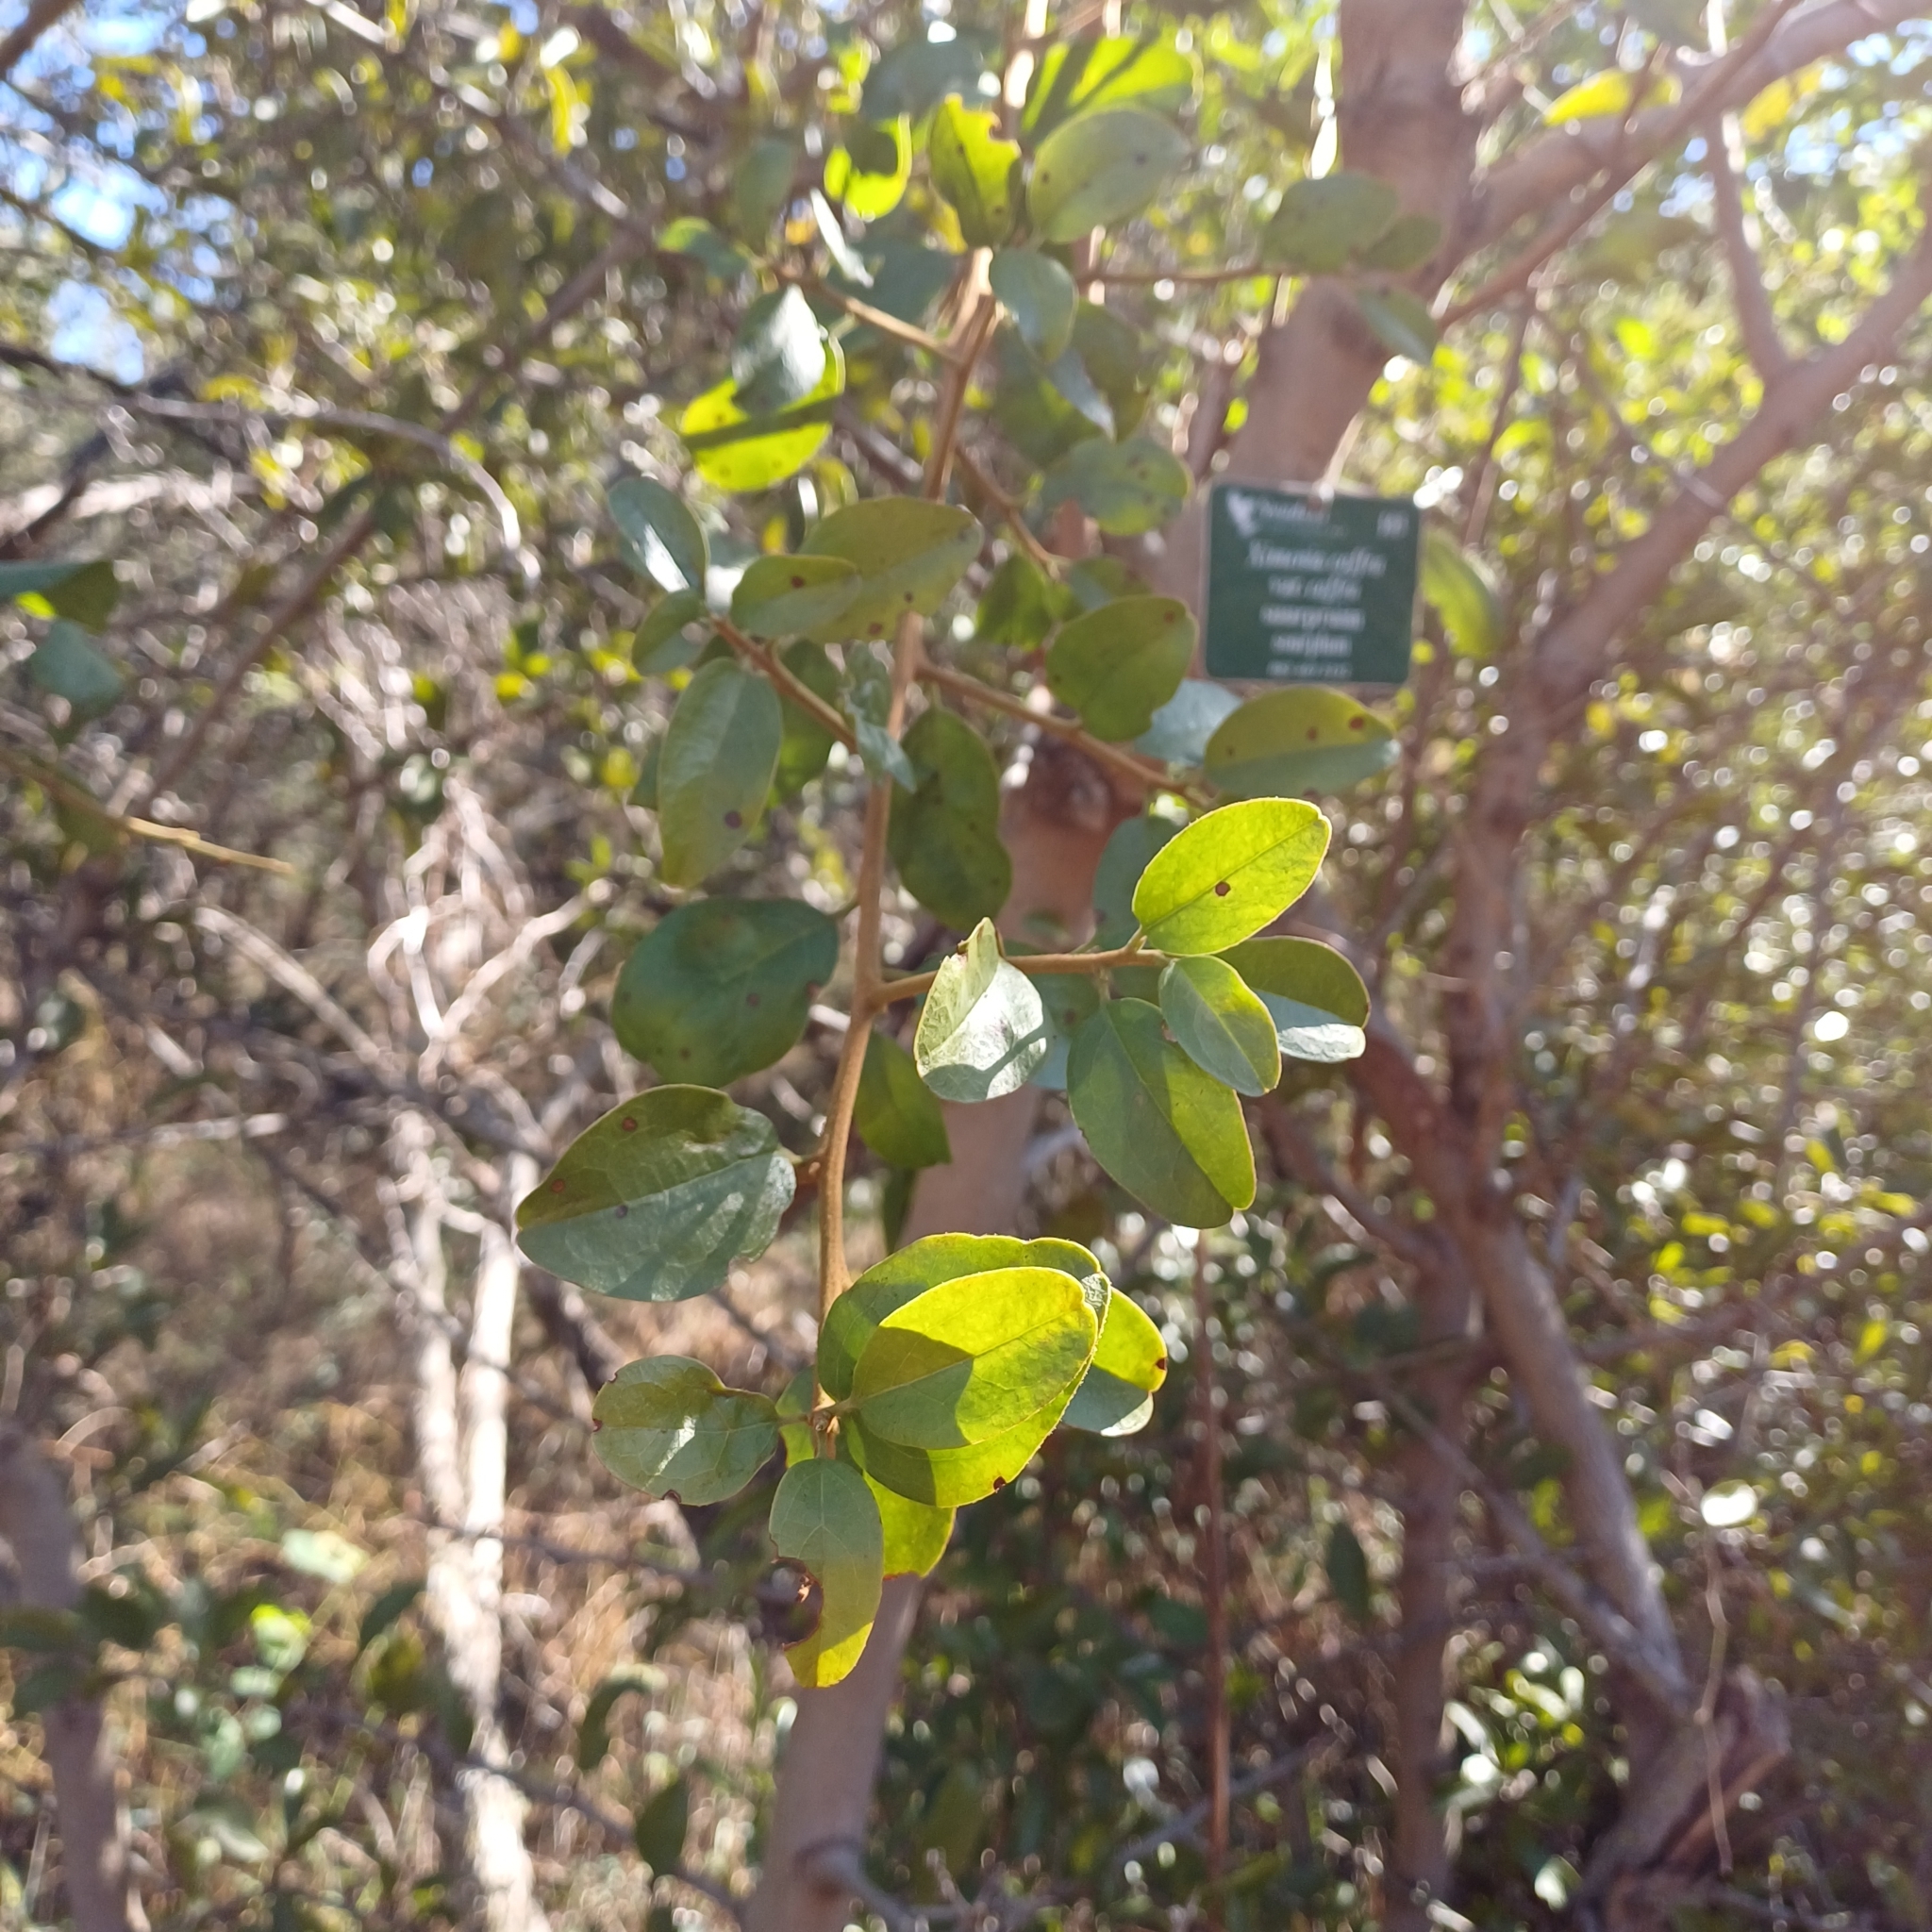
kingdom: Plantae
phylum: Tracheophyta
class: Magnoliopsida
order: Santalales
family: Ximeniaceae
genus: Ximenia
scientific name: Ximenia caffra
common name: Large sourplum
